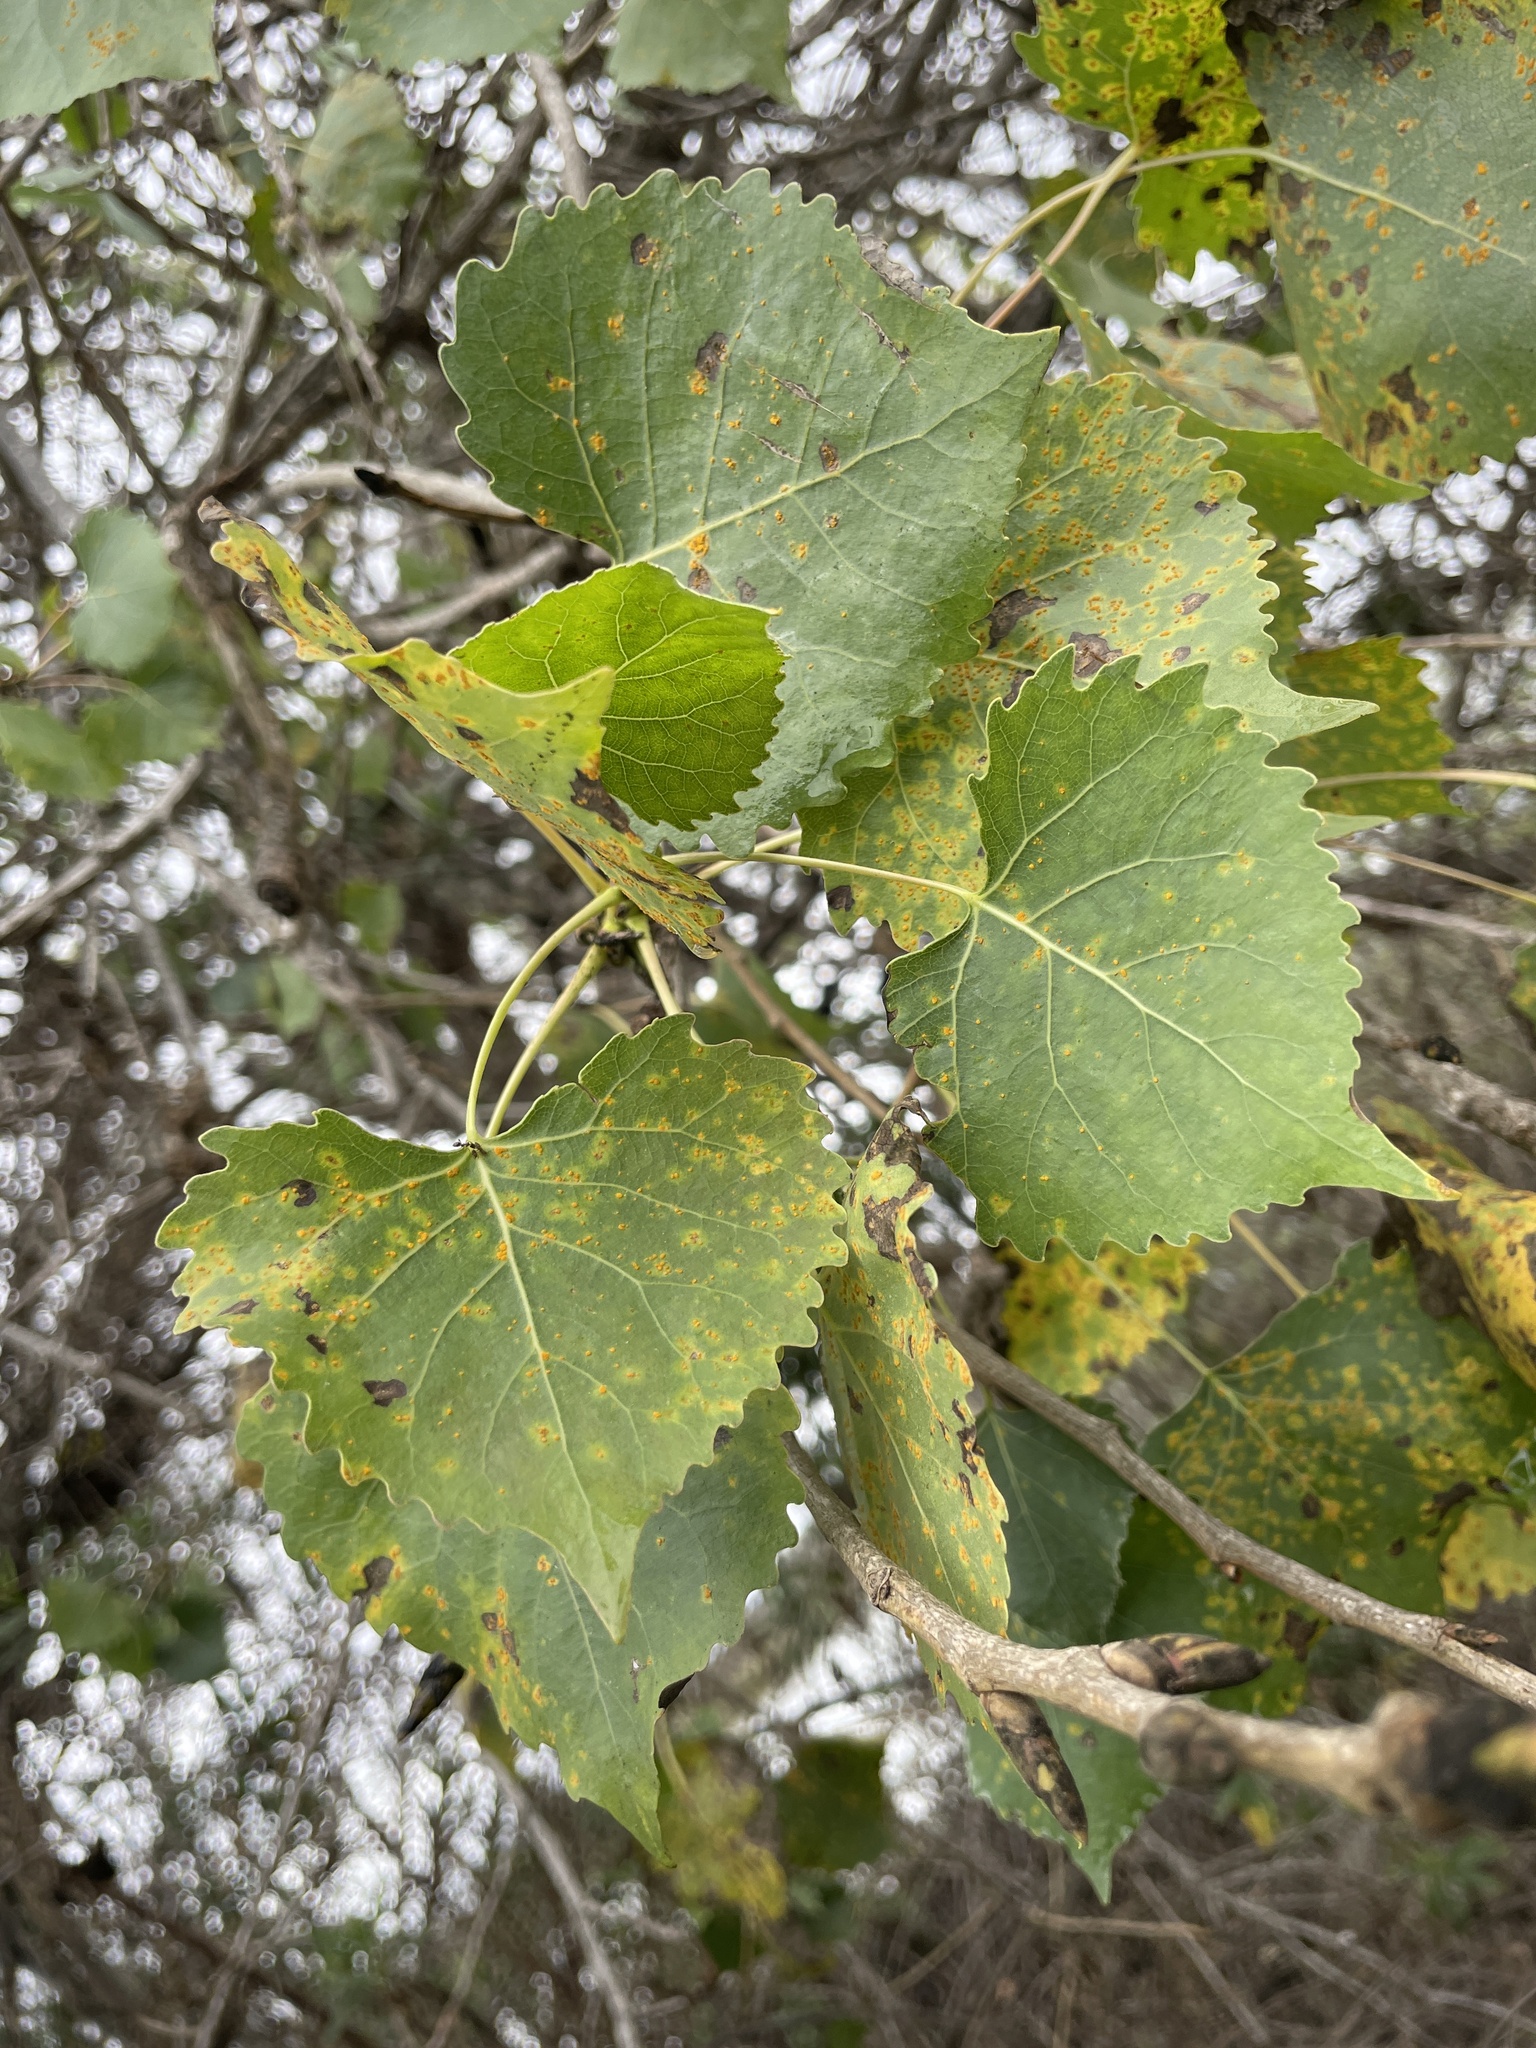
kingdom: Plantae
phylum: Tracheophyta
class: Magnoliopsida
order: Malpighiales
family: Salicaceae
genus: Populus
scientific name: Populus fremontii
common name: Fremont's cottonwood
